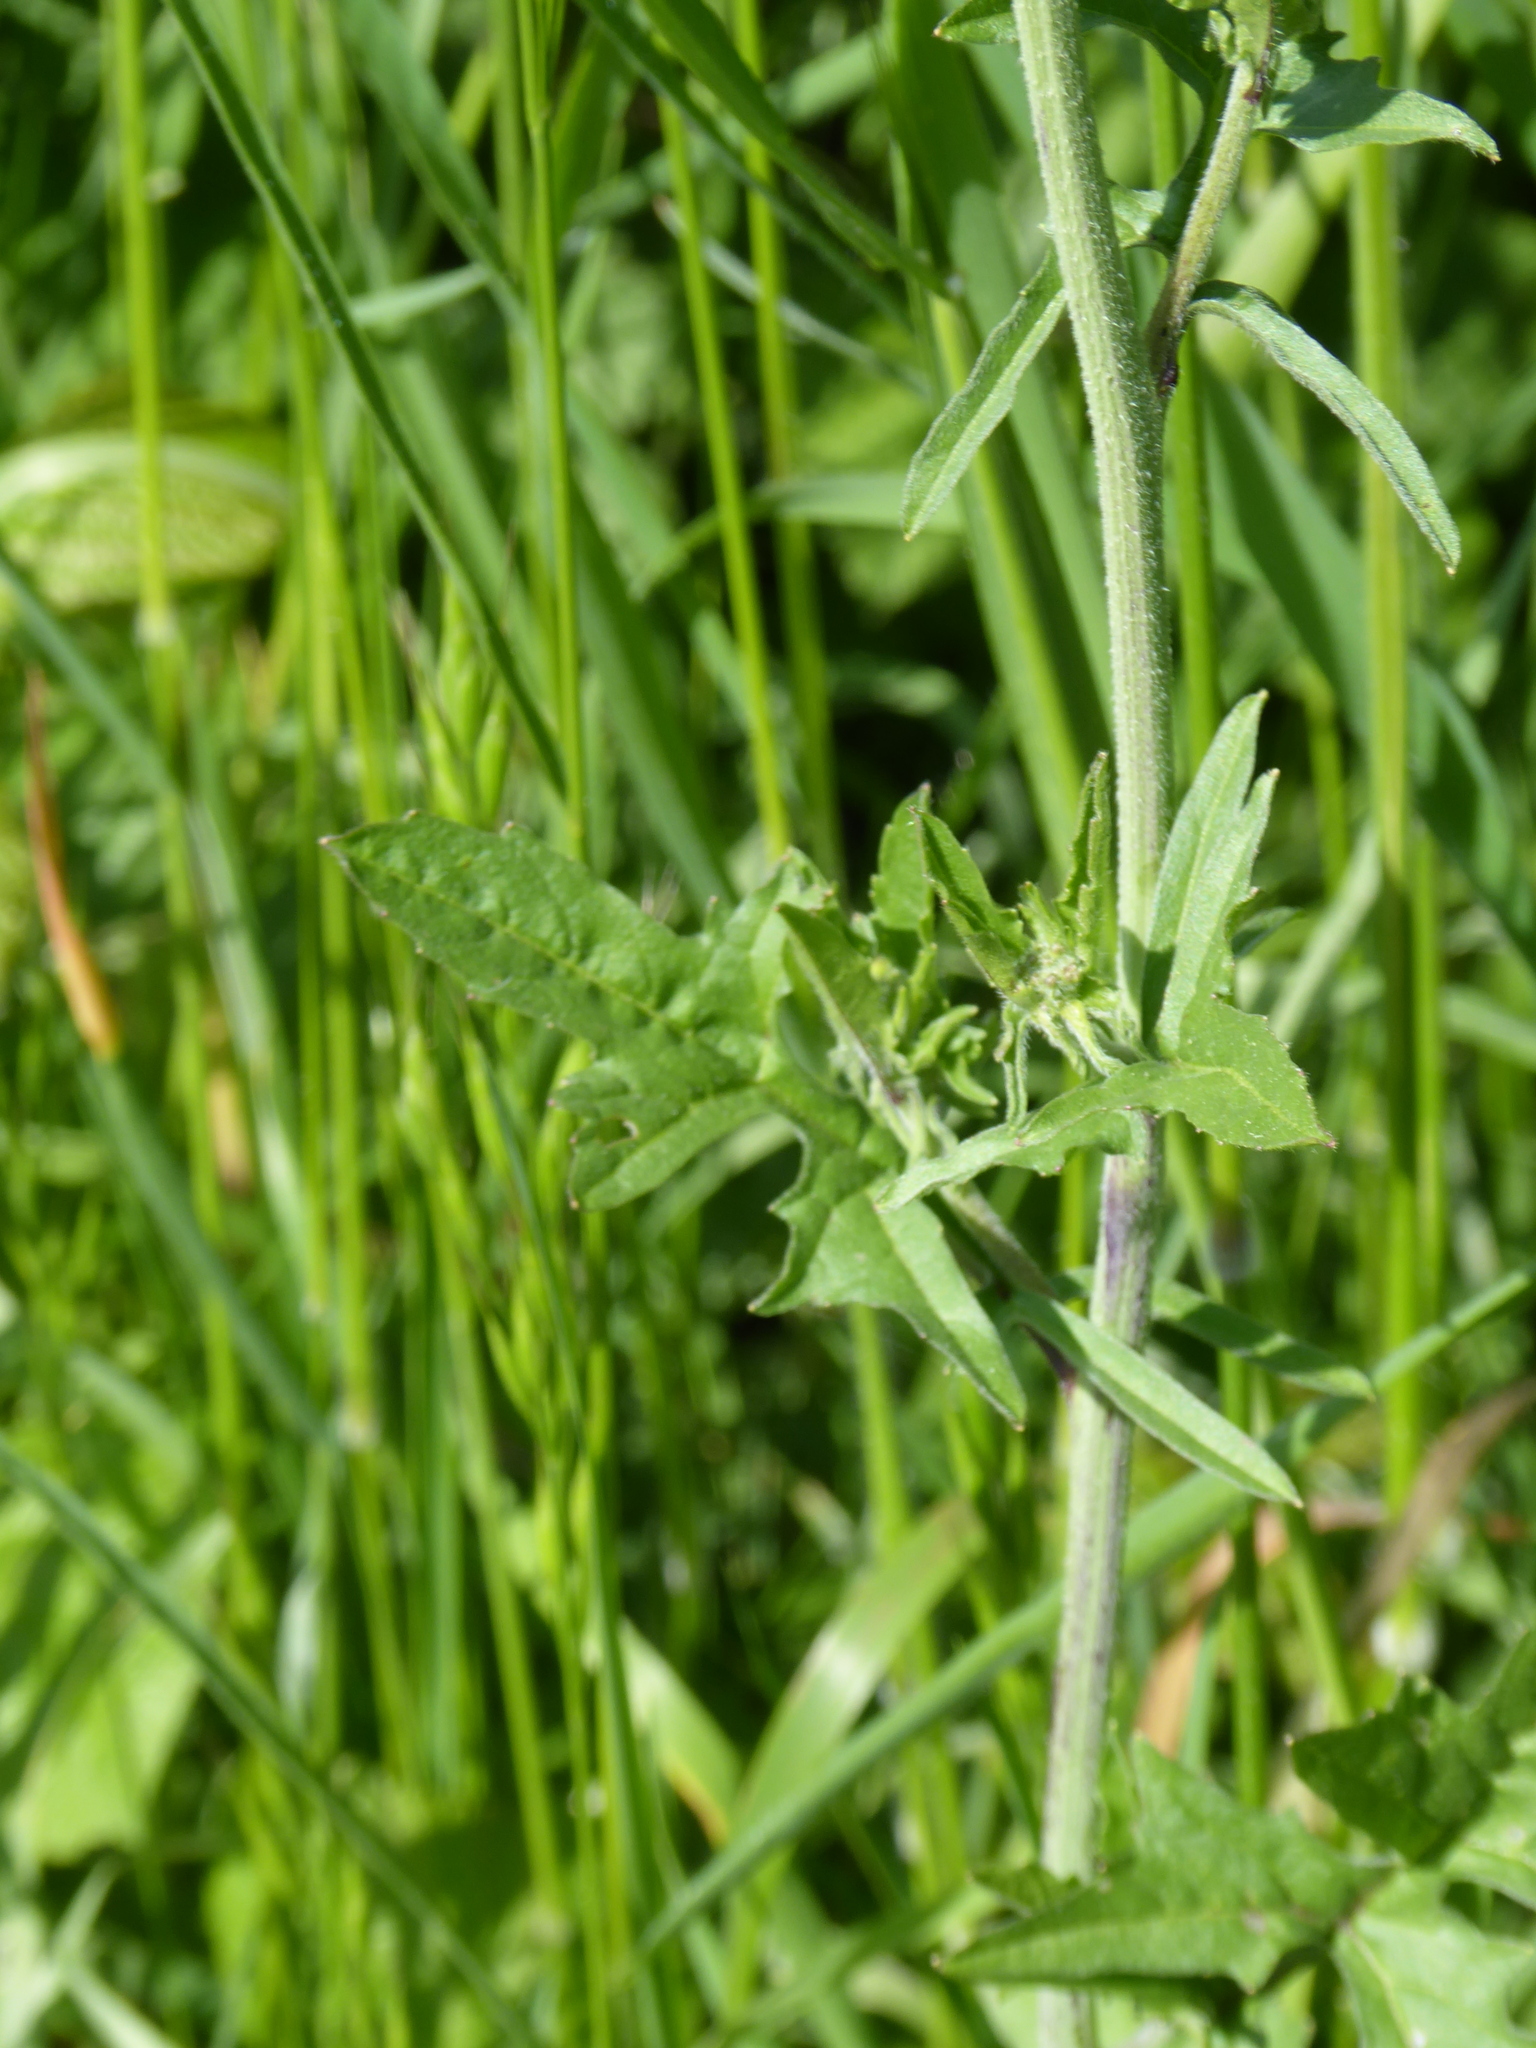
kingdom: Plantae
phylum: Tracheophyta
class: Magnoliopsida
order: Brassicales
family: Brassicaceae
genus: Sisymbrium
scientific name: Sisymbrium officinale
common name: Hedge mustard
